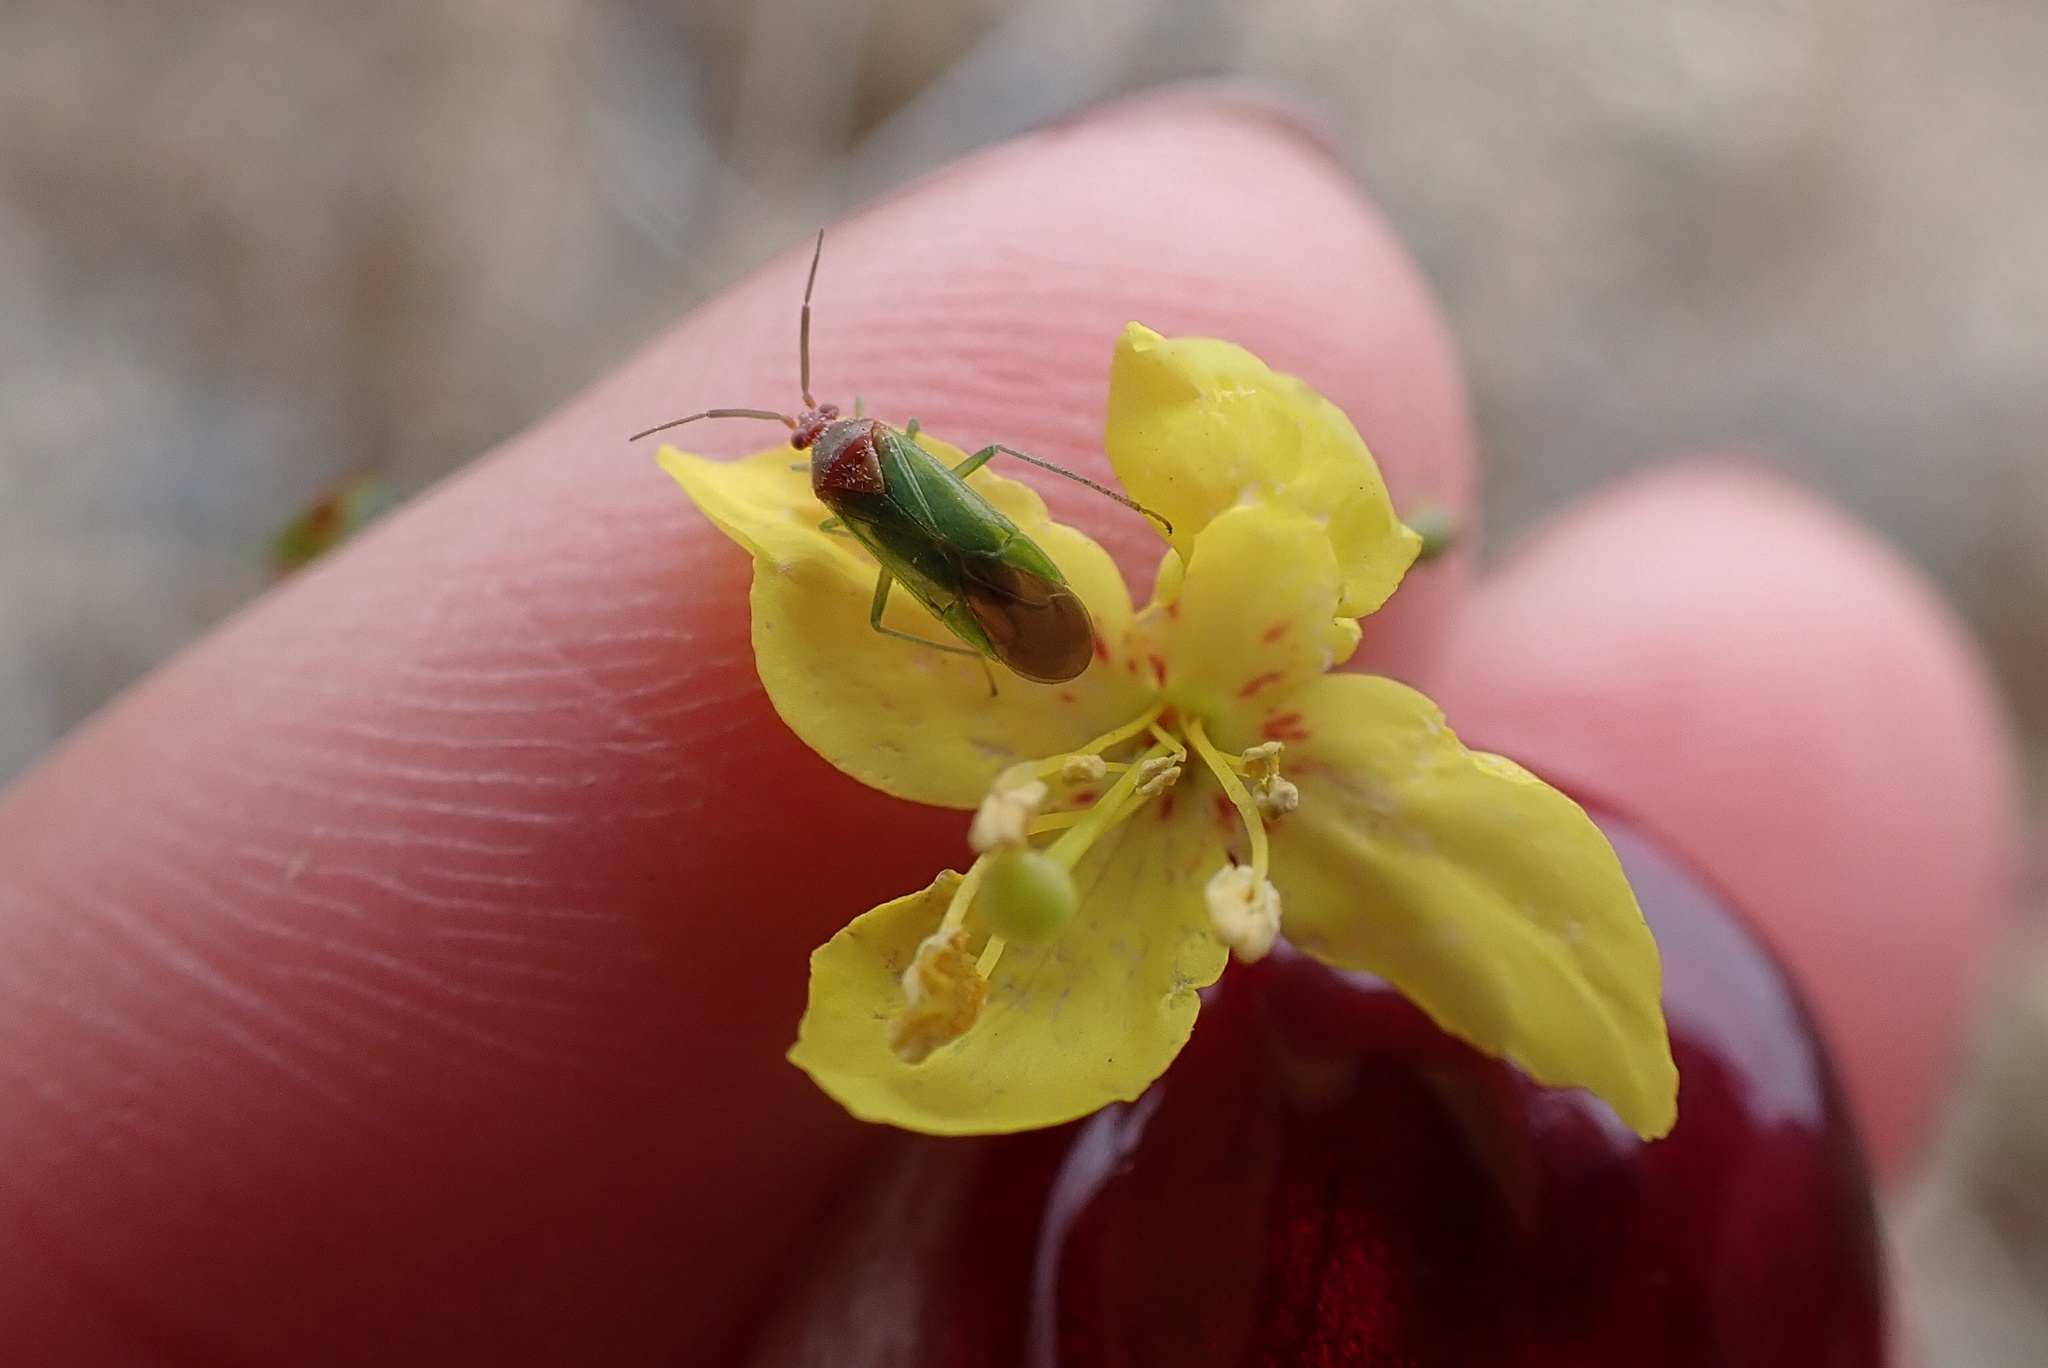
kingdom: Animalia
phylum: Arthropoda
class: Insecta
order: Hemiptera
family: Miridae
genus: Pseudopsallus
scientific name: Pseudopsallus puberus
